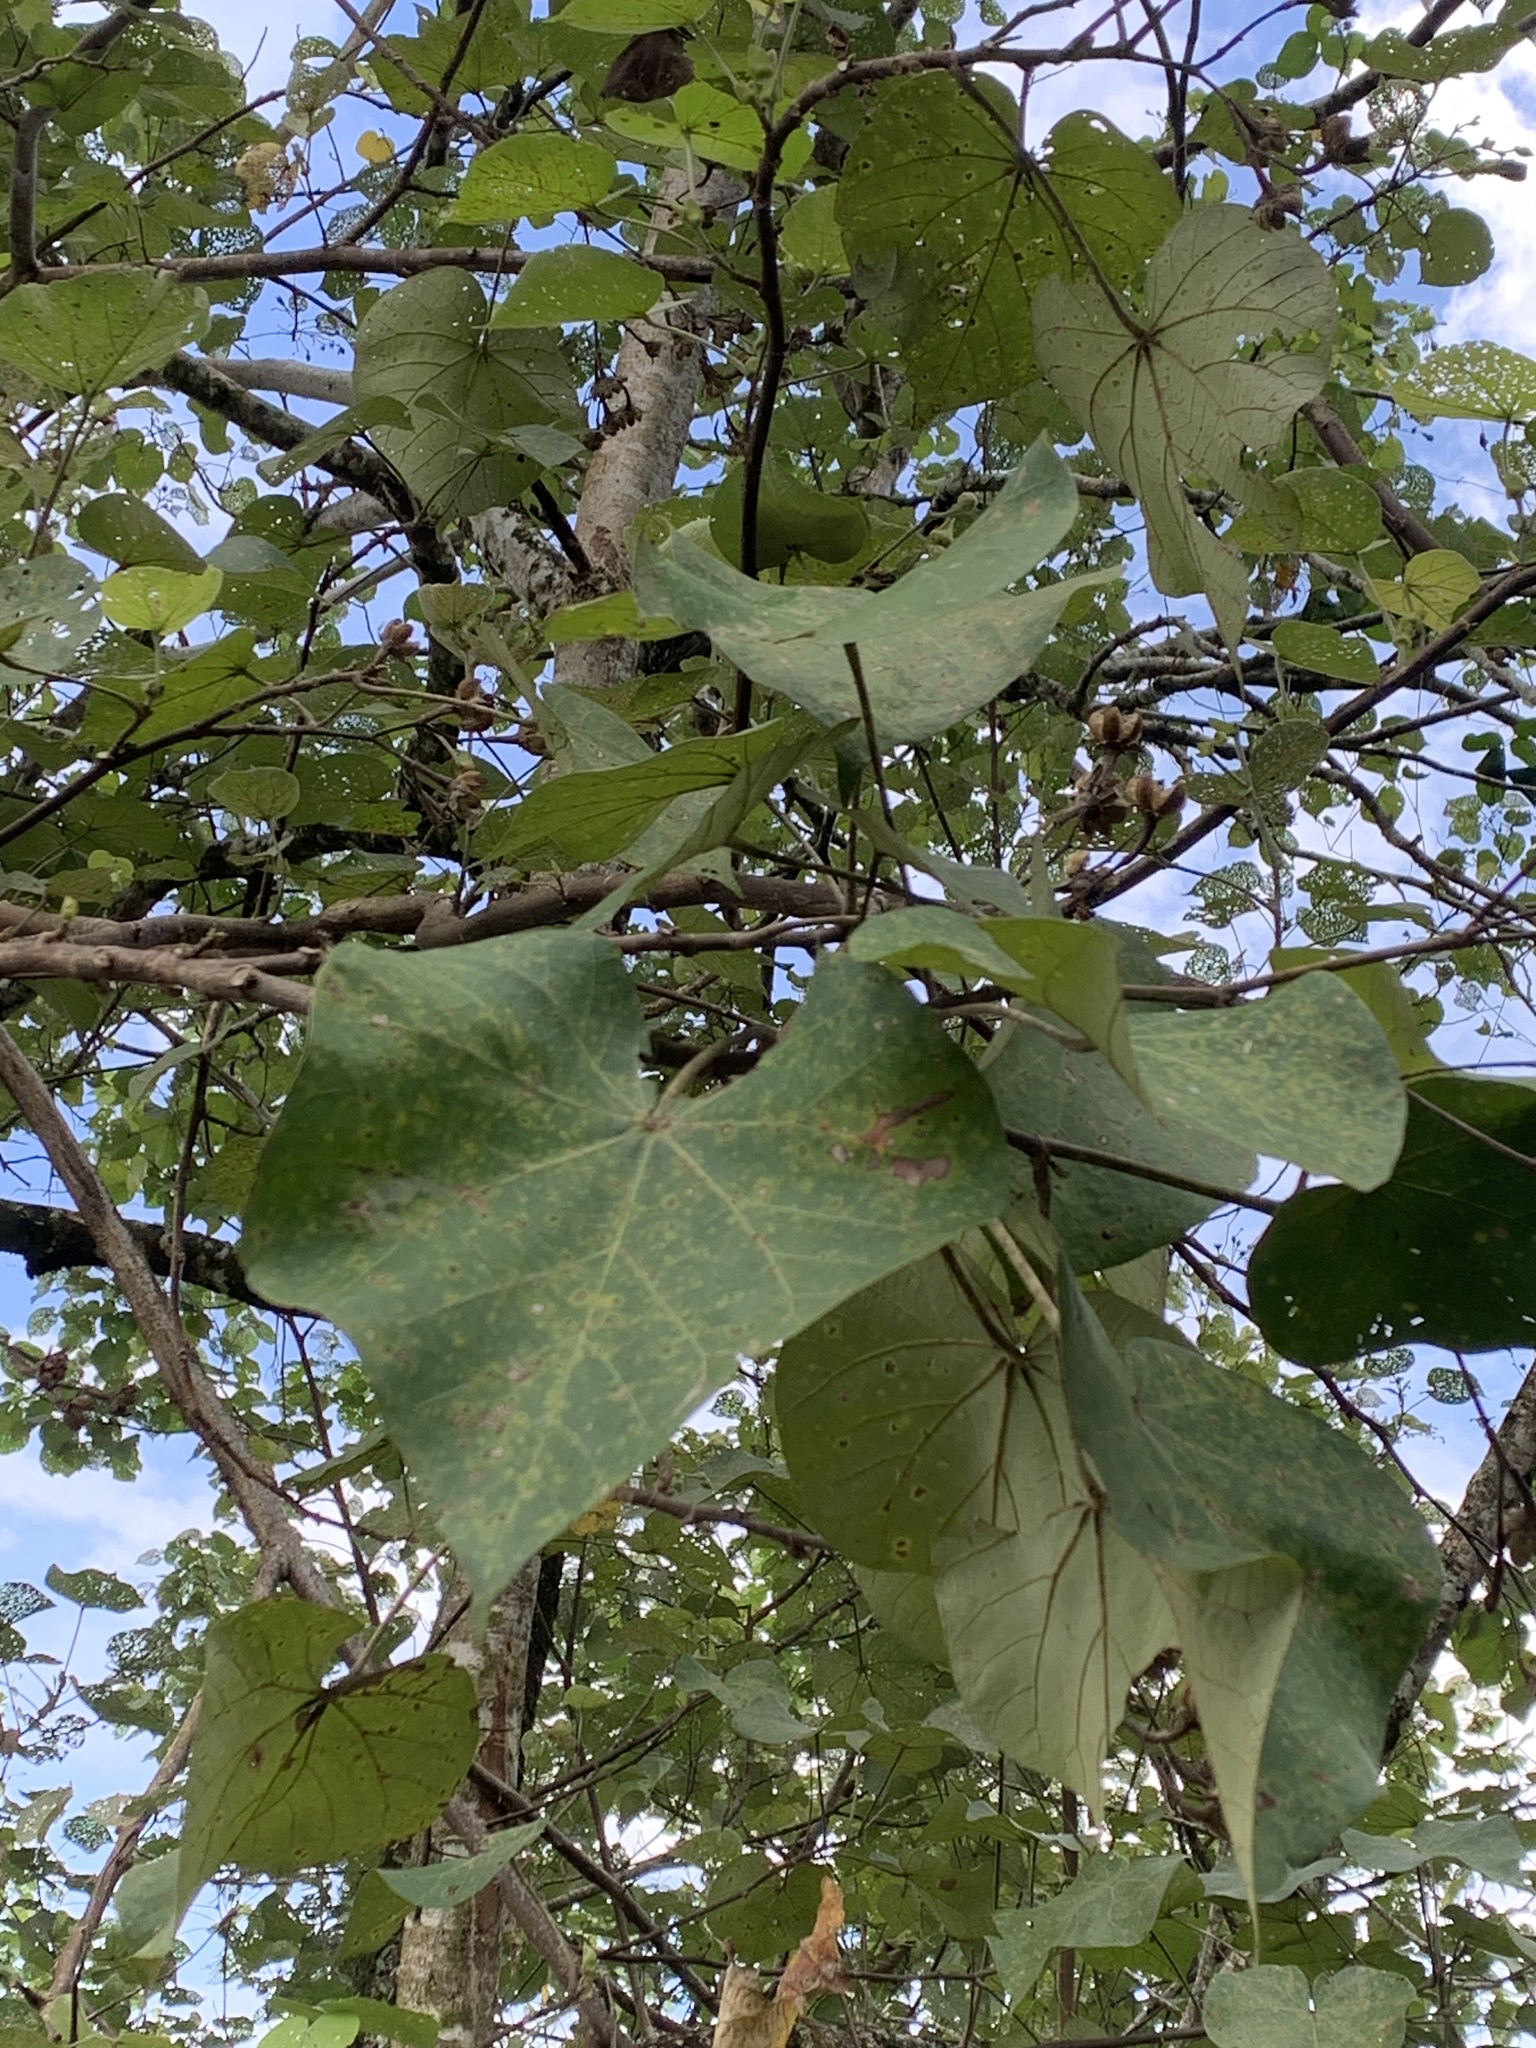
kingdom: Plantae
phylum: Tracheophyta
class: Magnoliopsida
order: Malvales
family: Malvaceae
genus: Talipariti
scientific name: Talipariti tiliaceum
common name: Sea hibiscus
